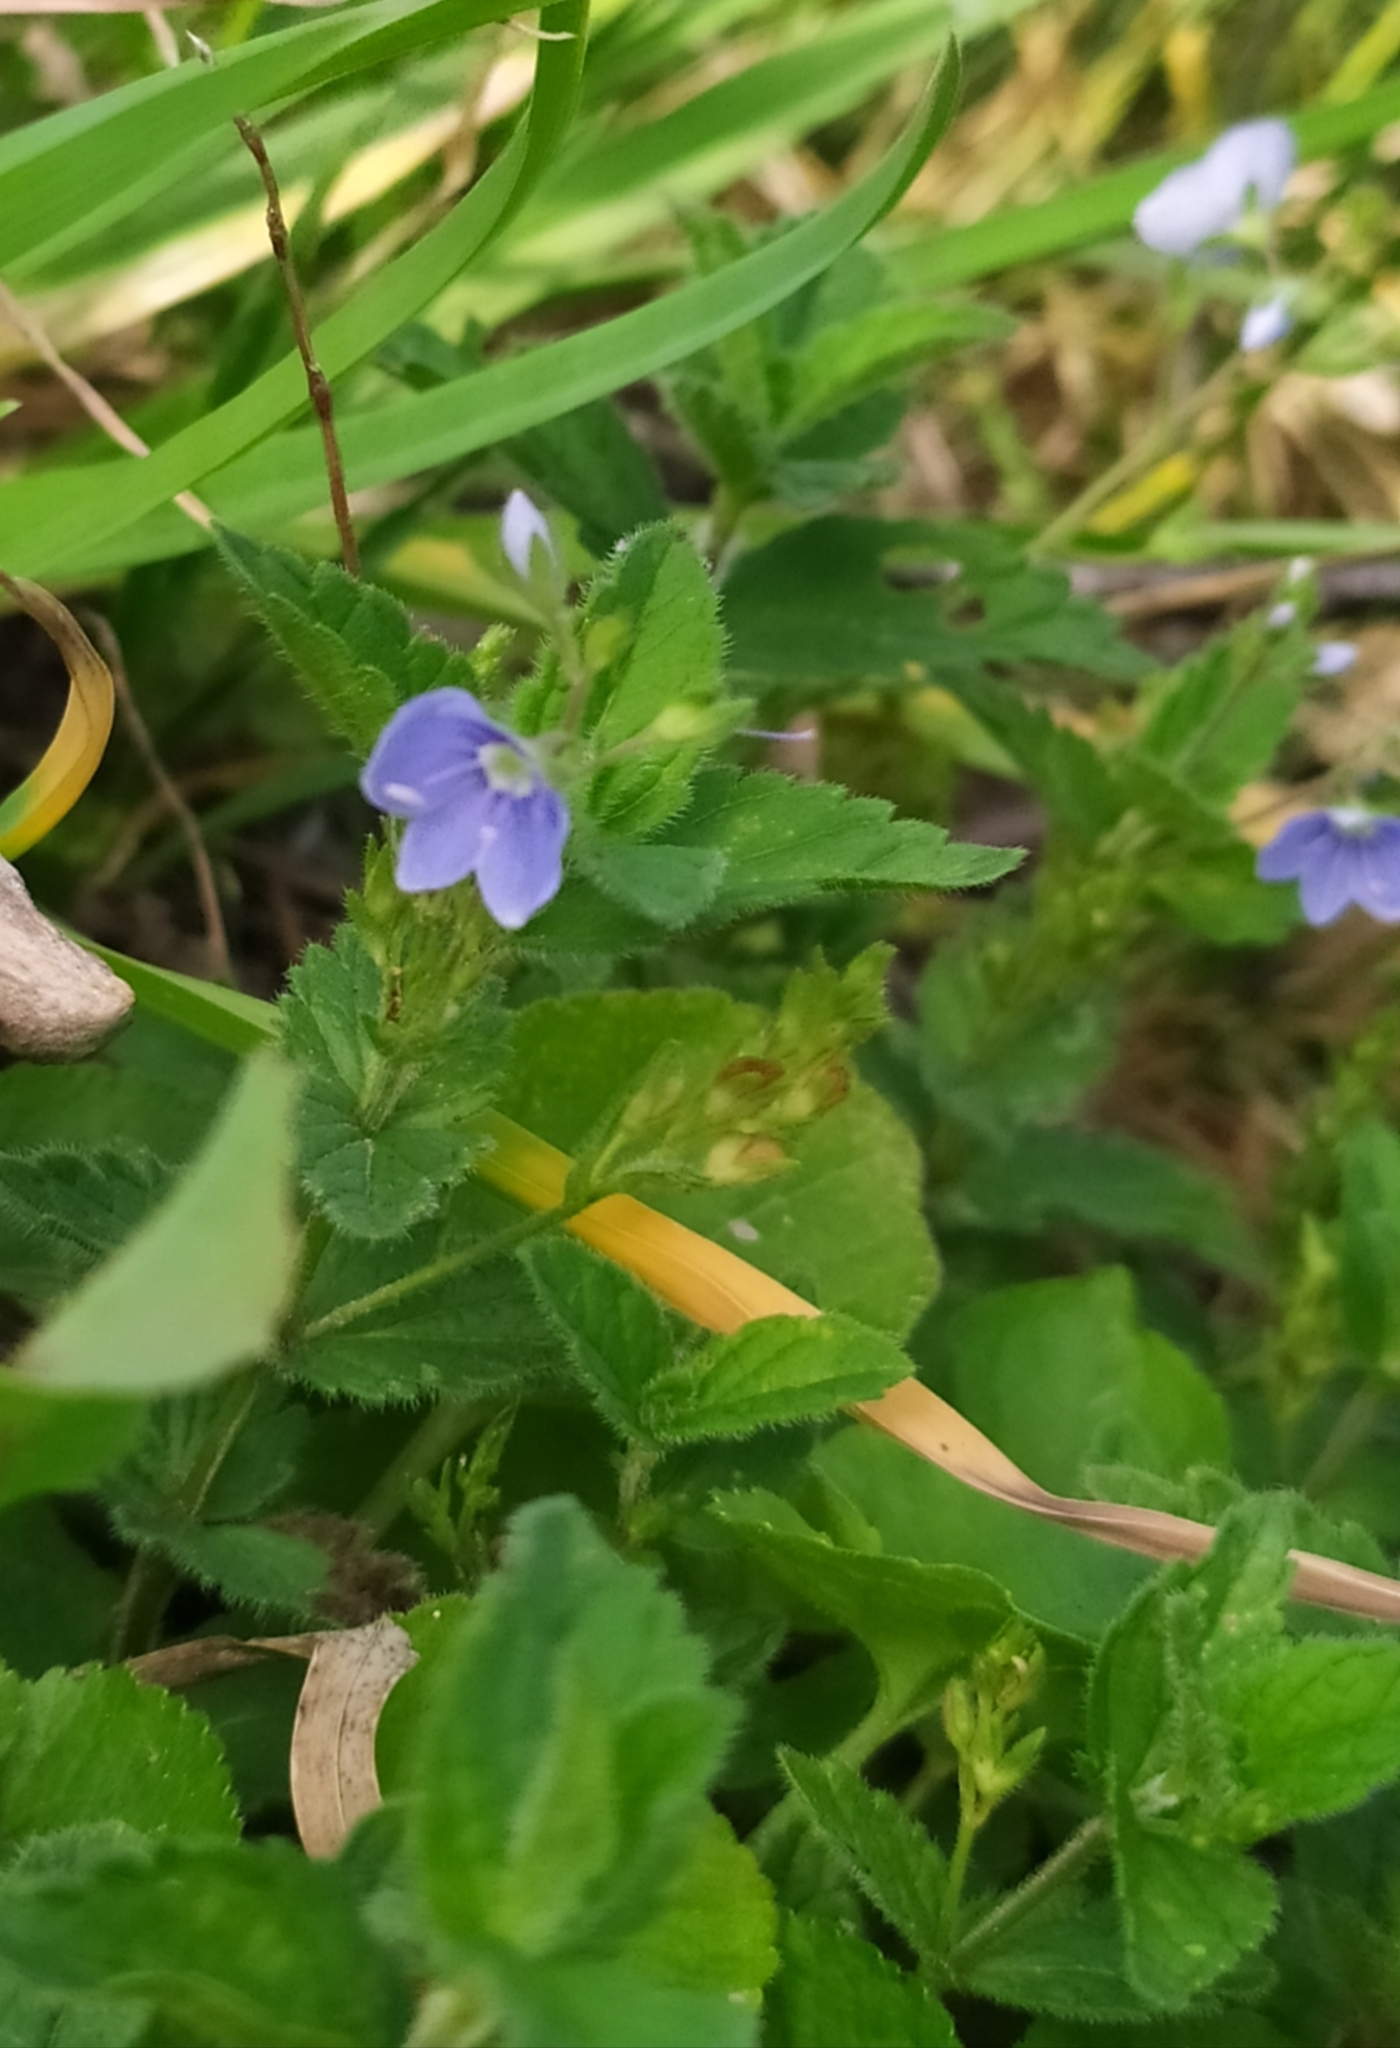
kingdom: Plantae
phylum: Tracheophyta
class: Magnoliopsida
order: Lamiales
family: Plantaginaceae
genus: Veronica
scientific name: Veronica chamaedrys
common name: Germander speedwell
